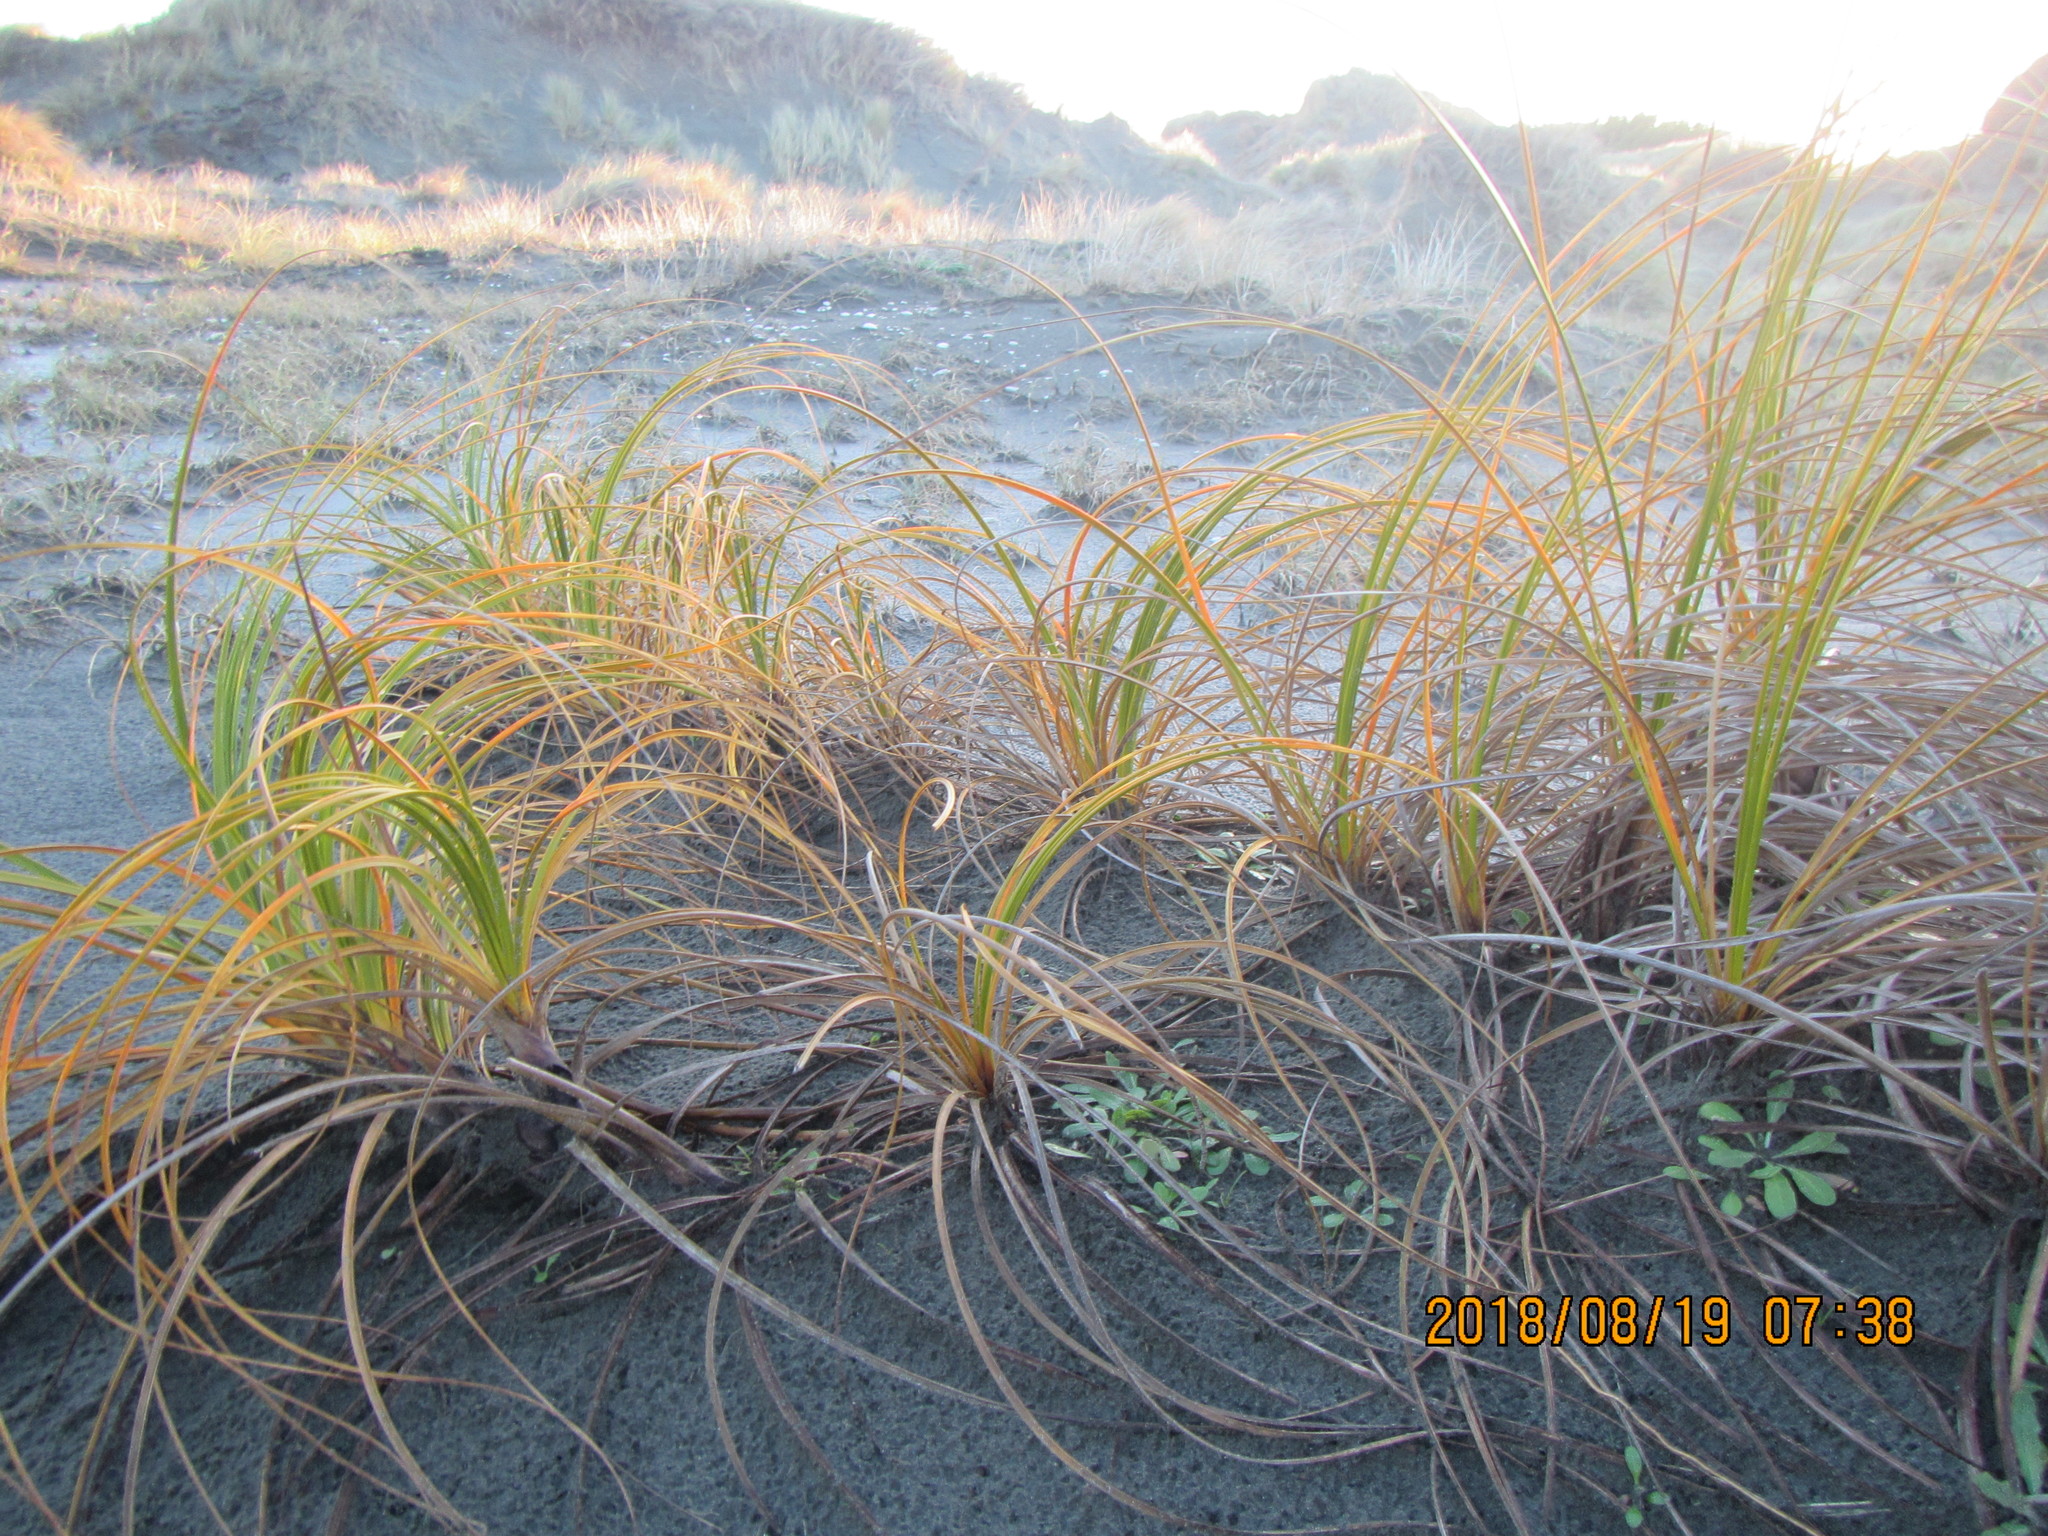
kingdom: Plantae
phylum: Tracheophyta
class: Liliopsida
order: Poales
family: Cyperaceae
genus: Ficinia
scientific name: Ficinia spiralis
